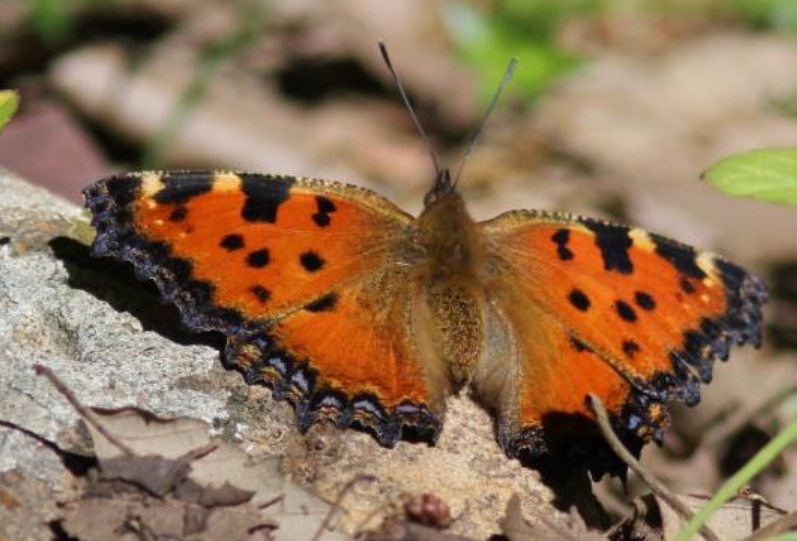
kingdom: Animalia
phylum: Arthropoda
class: Insecta
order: Lepidoptera
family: Nymphalidae
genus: Nymphalis
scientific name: Nymphalis polychloros
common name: Large tortoiseshell
